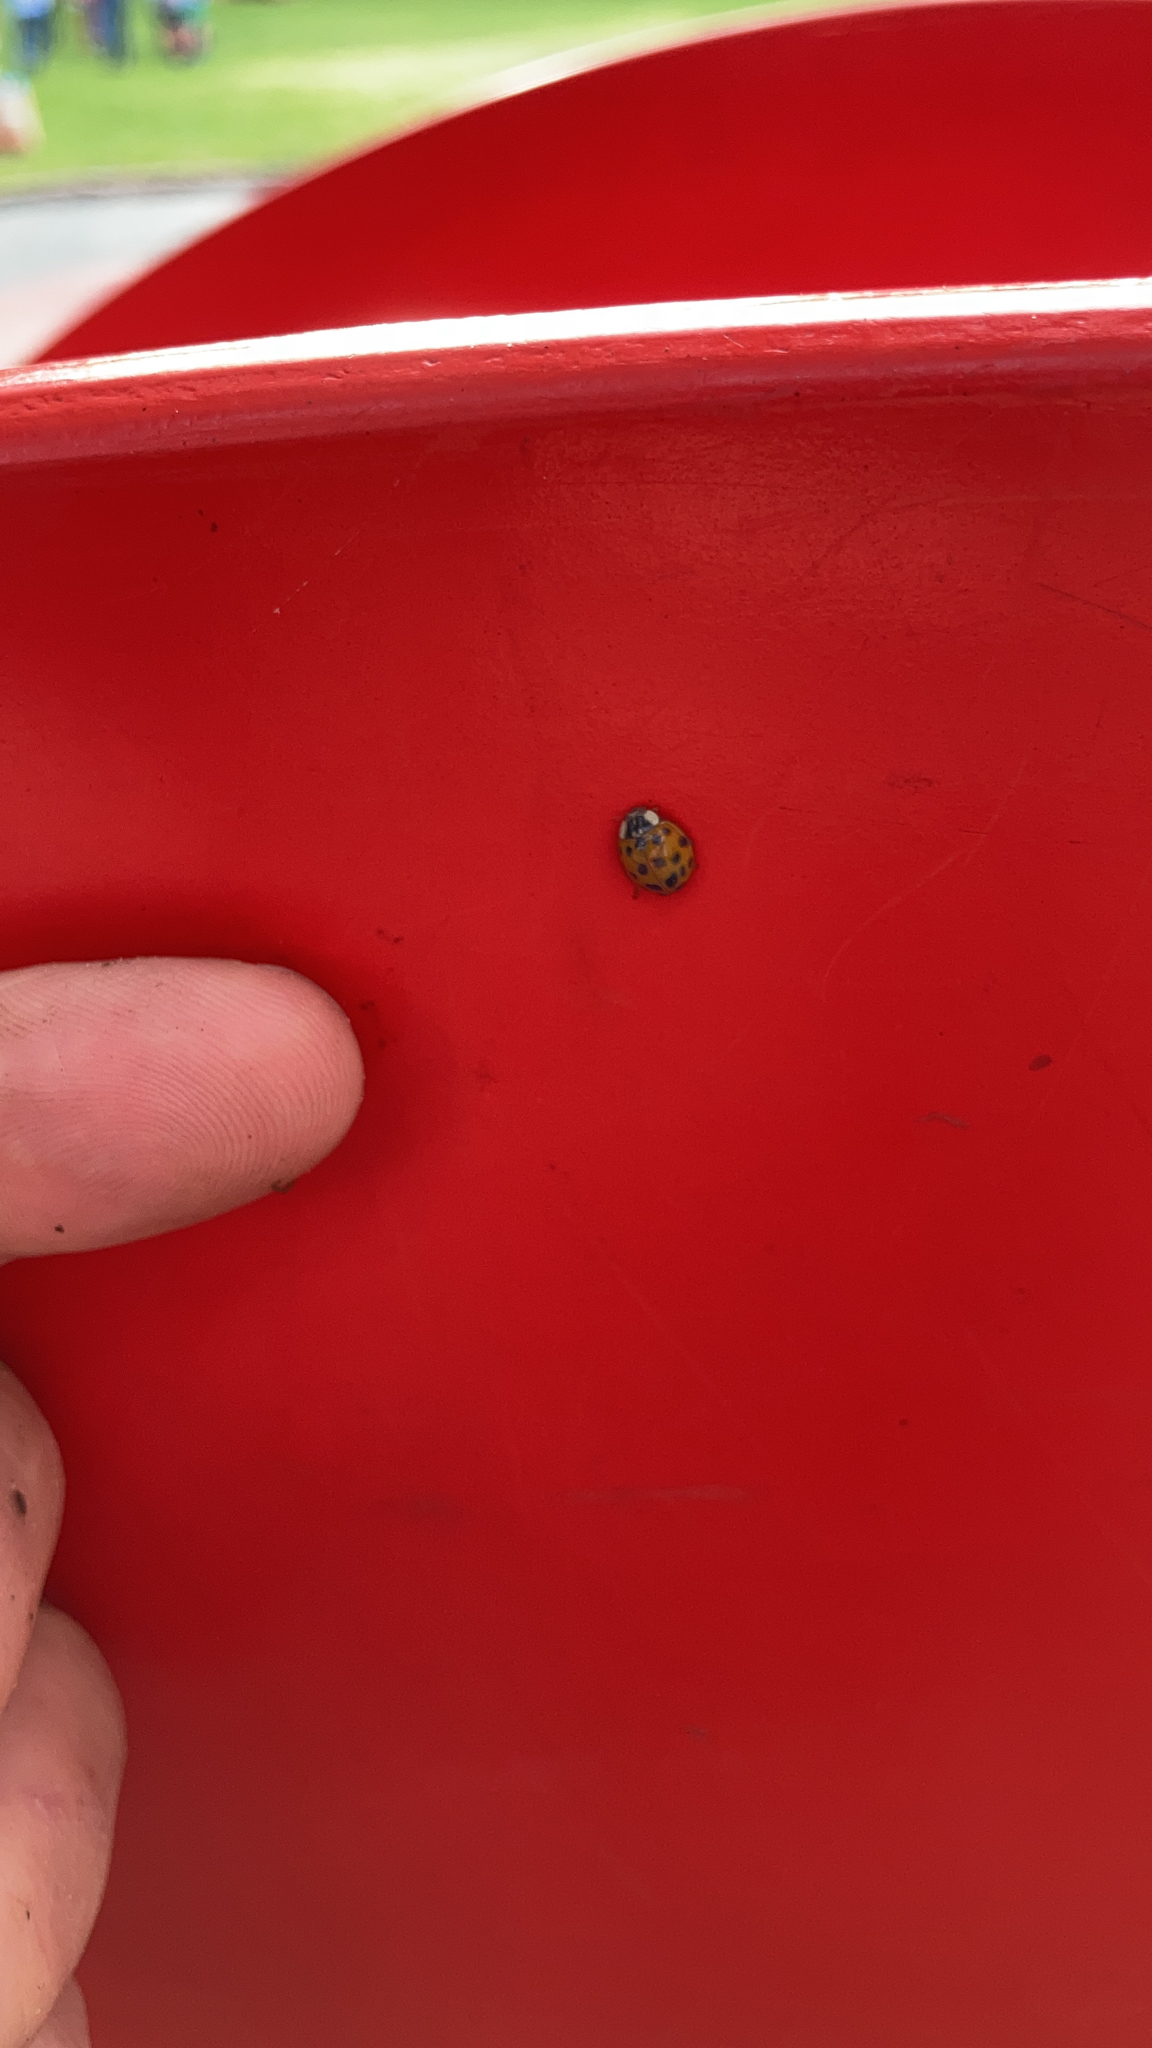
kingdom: Animalia
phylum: Arthropoda
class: Insecta
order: Coleoptera
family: Coccinellidae
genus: Harmonia
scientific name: Harmonia axyridis
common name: Harlequin ladybird
